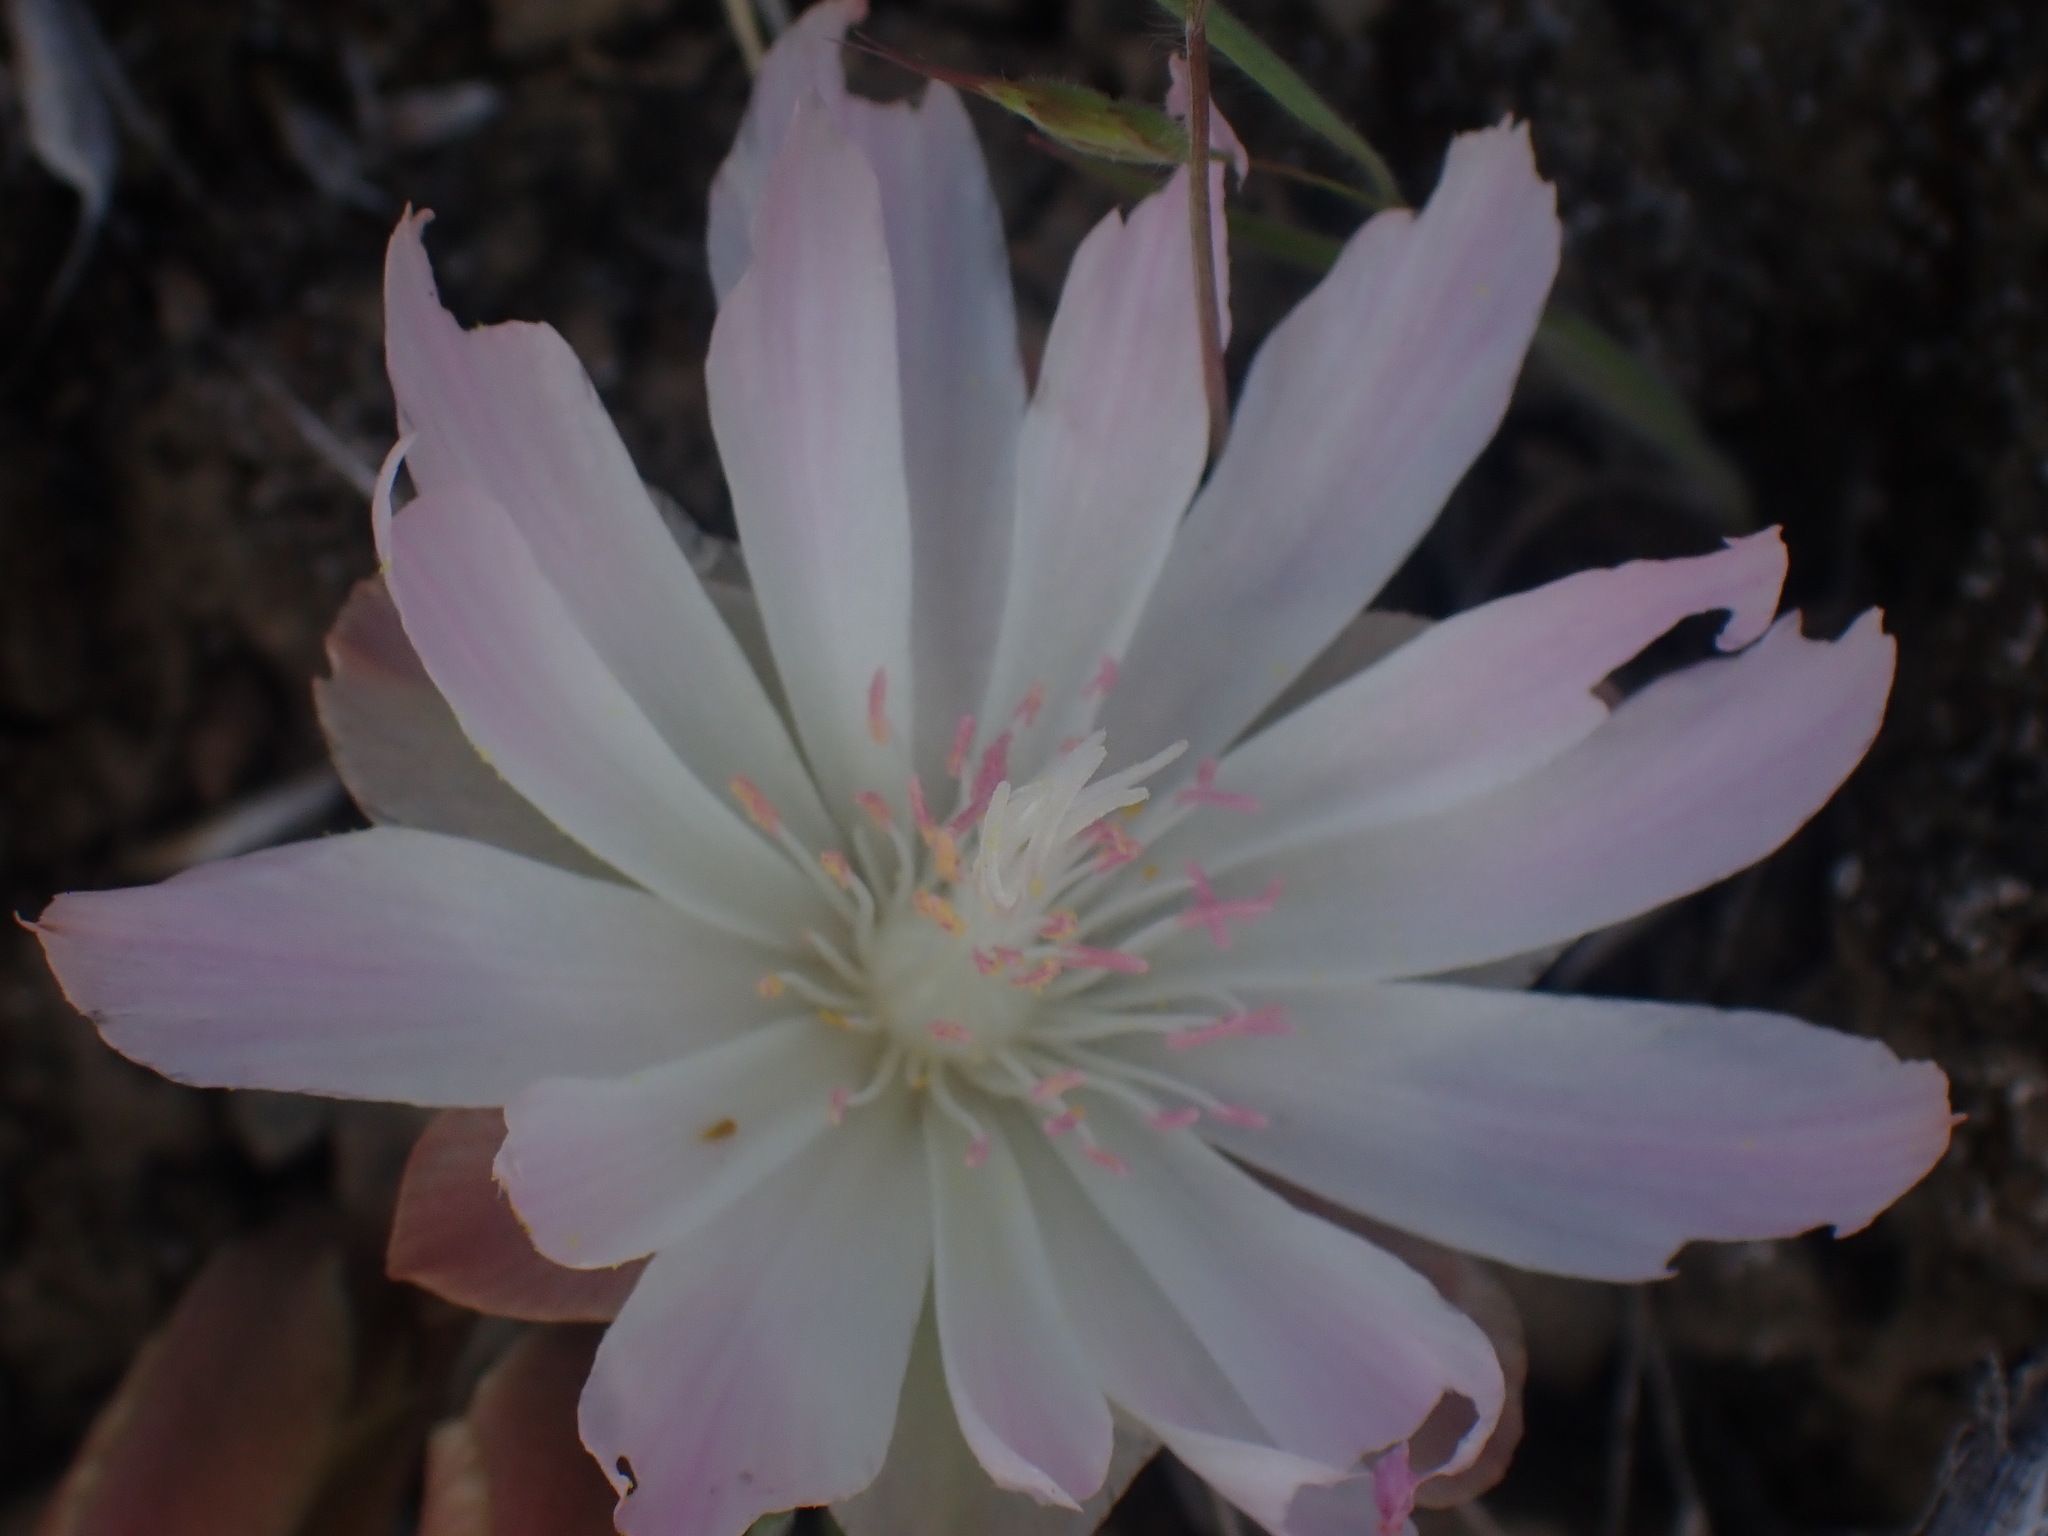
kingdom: Plantae
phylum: Tracheophyta
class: Magnoliopsida
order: Caryophyllales
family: Montiaceae
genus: Lewisia
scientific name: Lewisia rediviva
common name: Bitter-root
